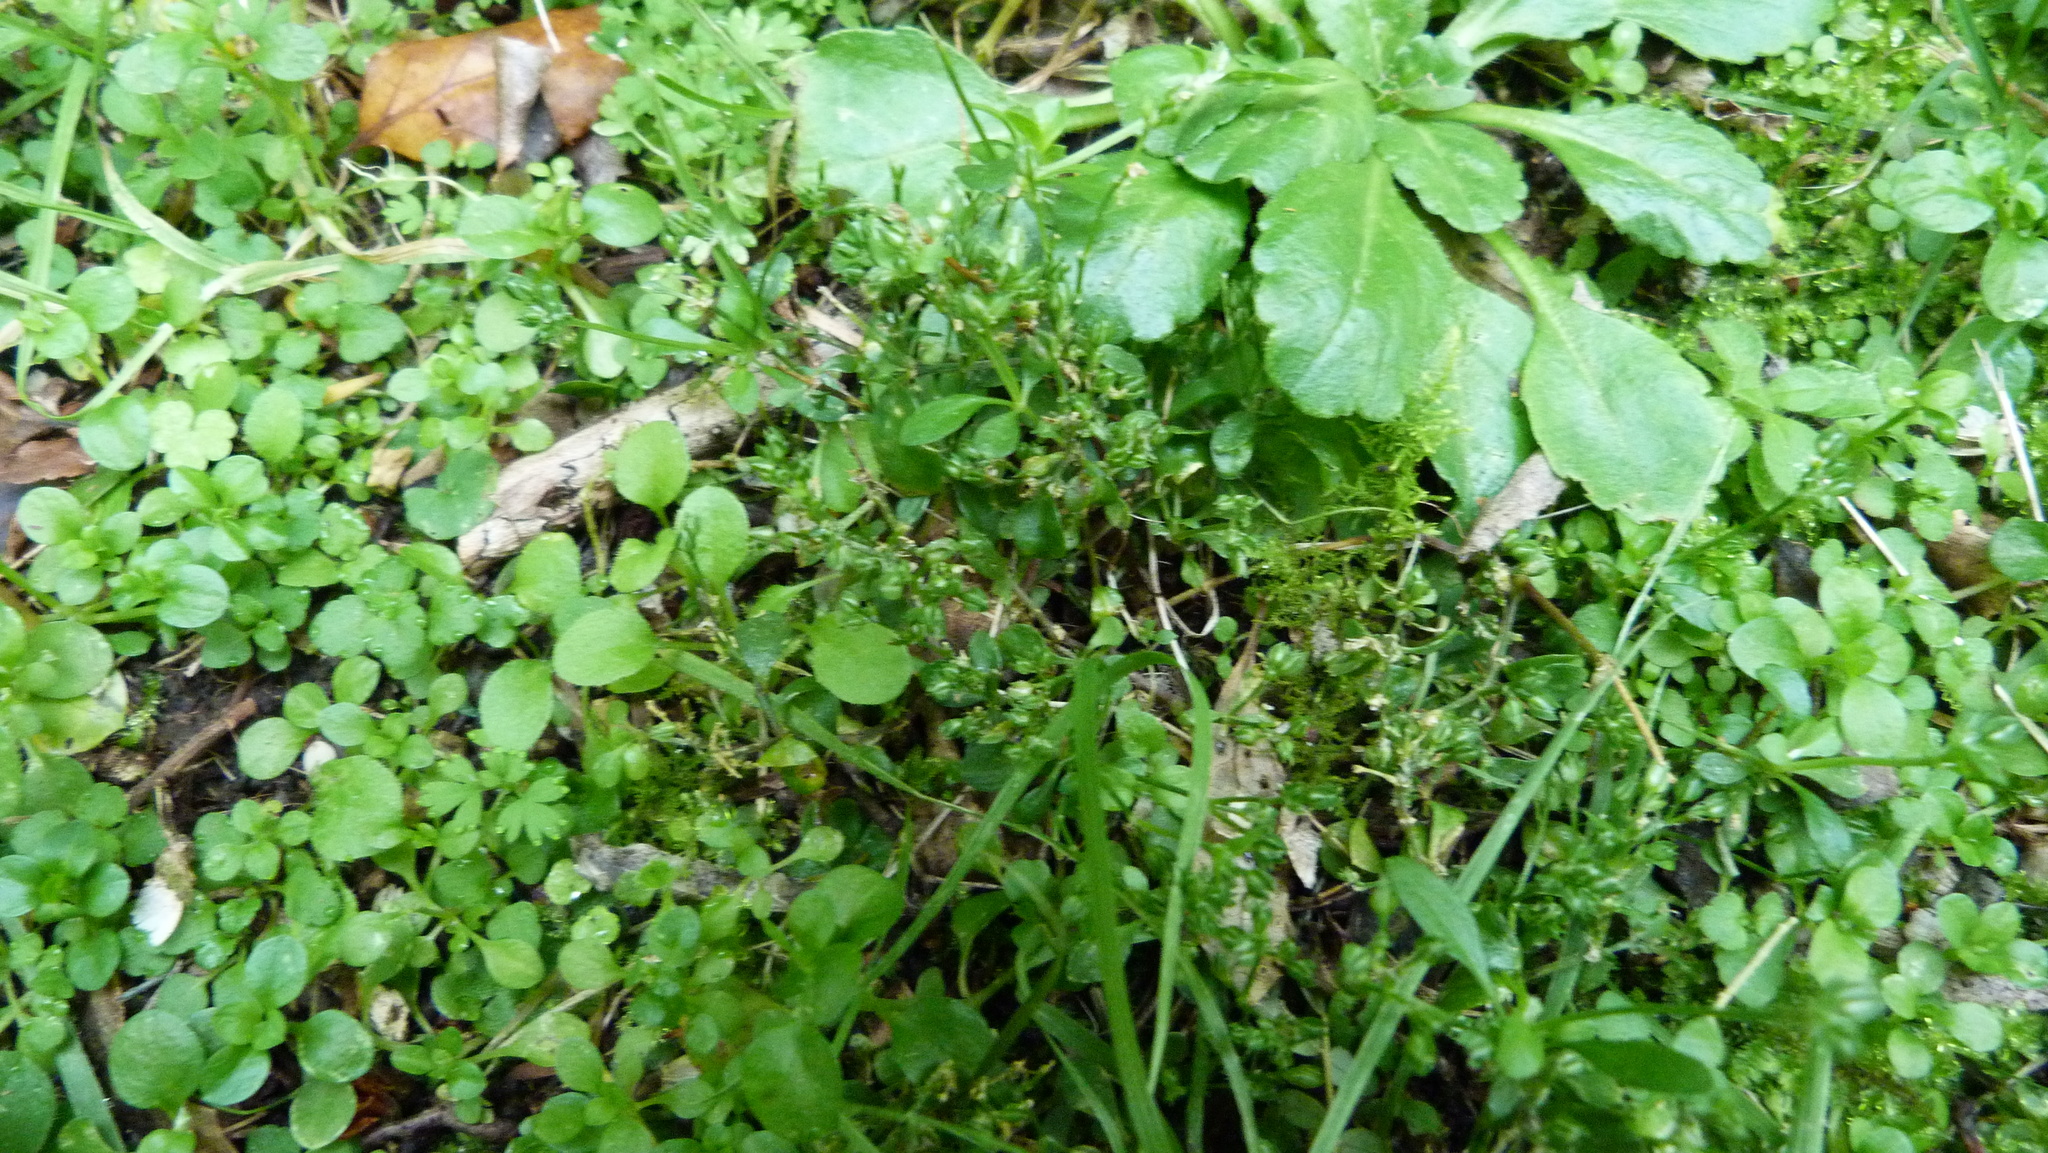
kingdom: Plantae
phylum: Tracheophyta
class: Magnoliopsida
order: Caryophyllales
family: Caryophyllaceae
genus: Polycarpon
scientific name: Polycarpon tetraphyllum
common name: Four-leaved all-seed
